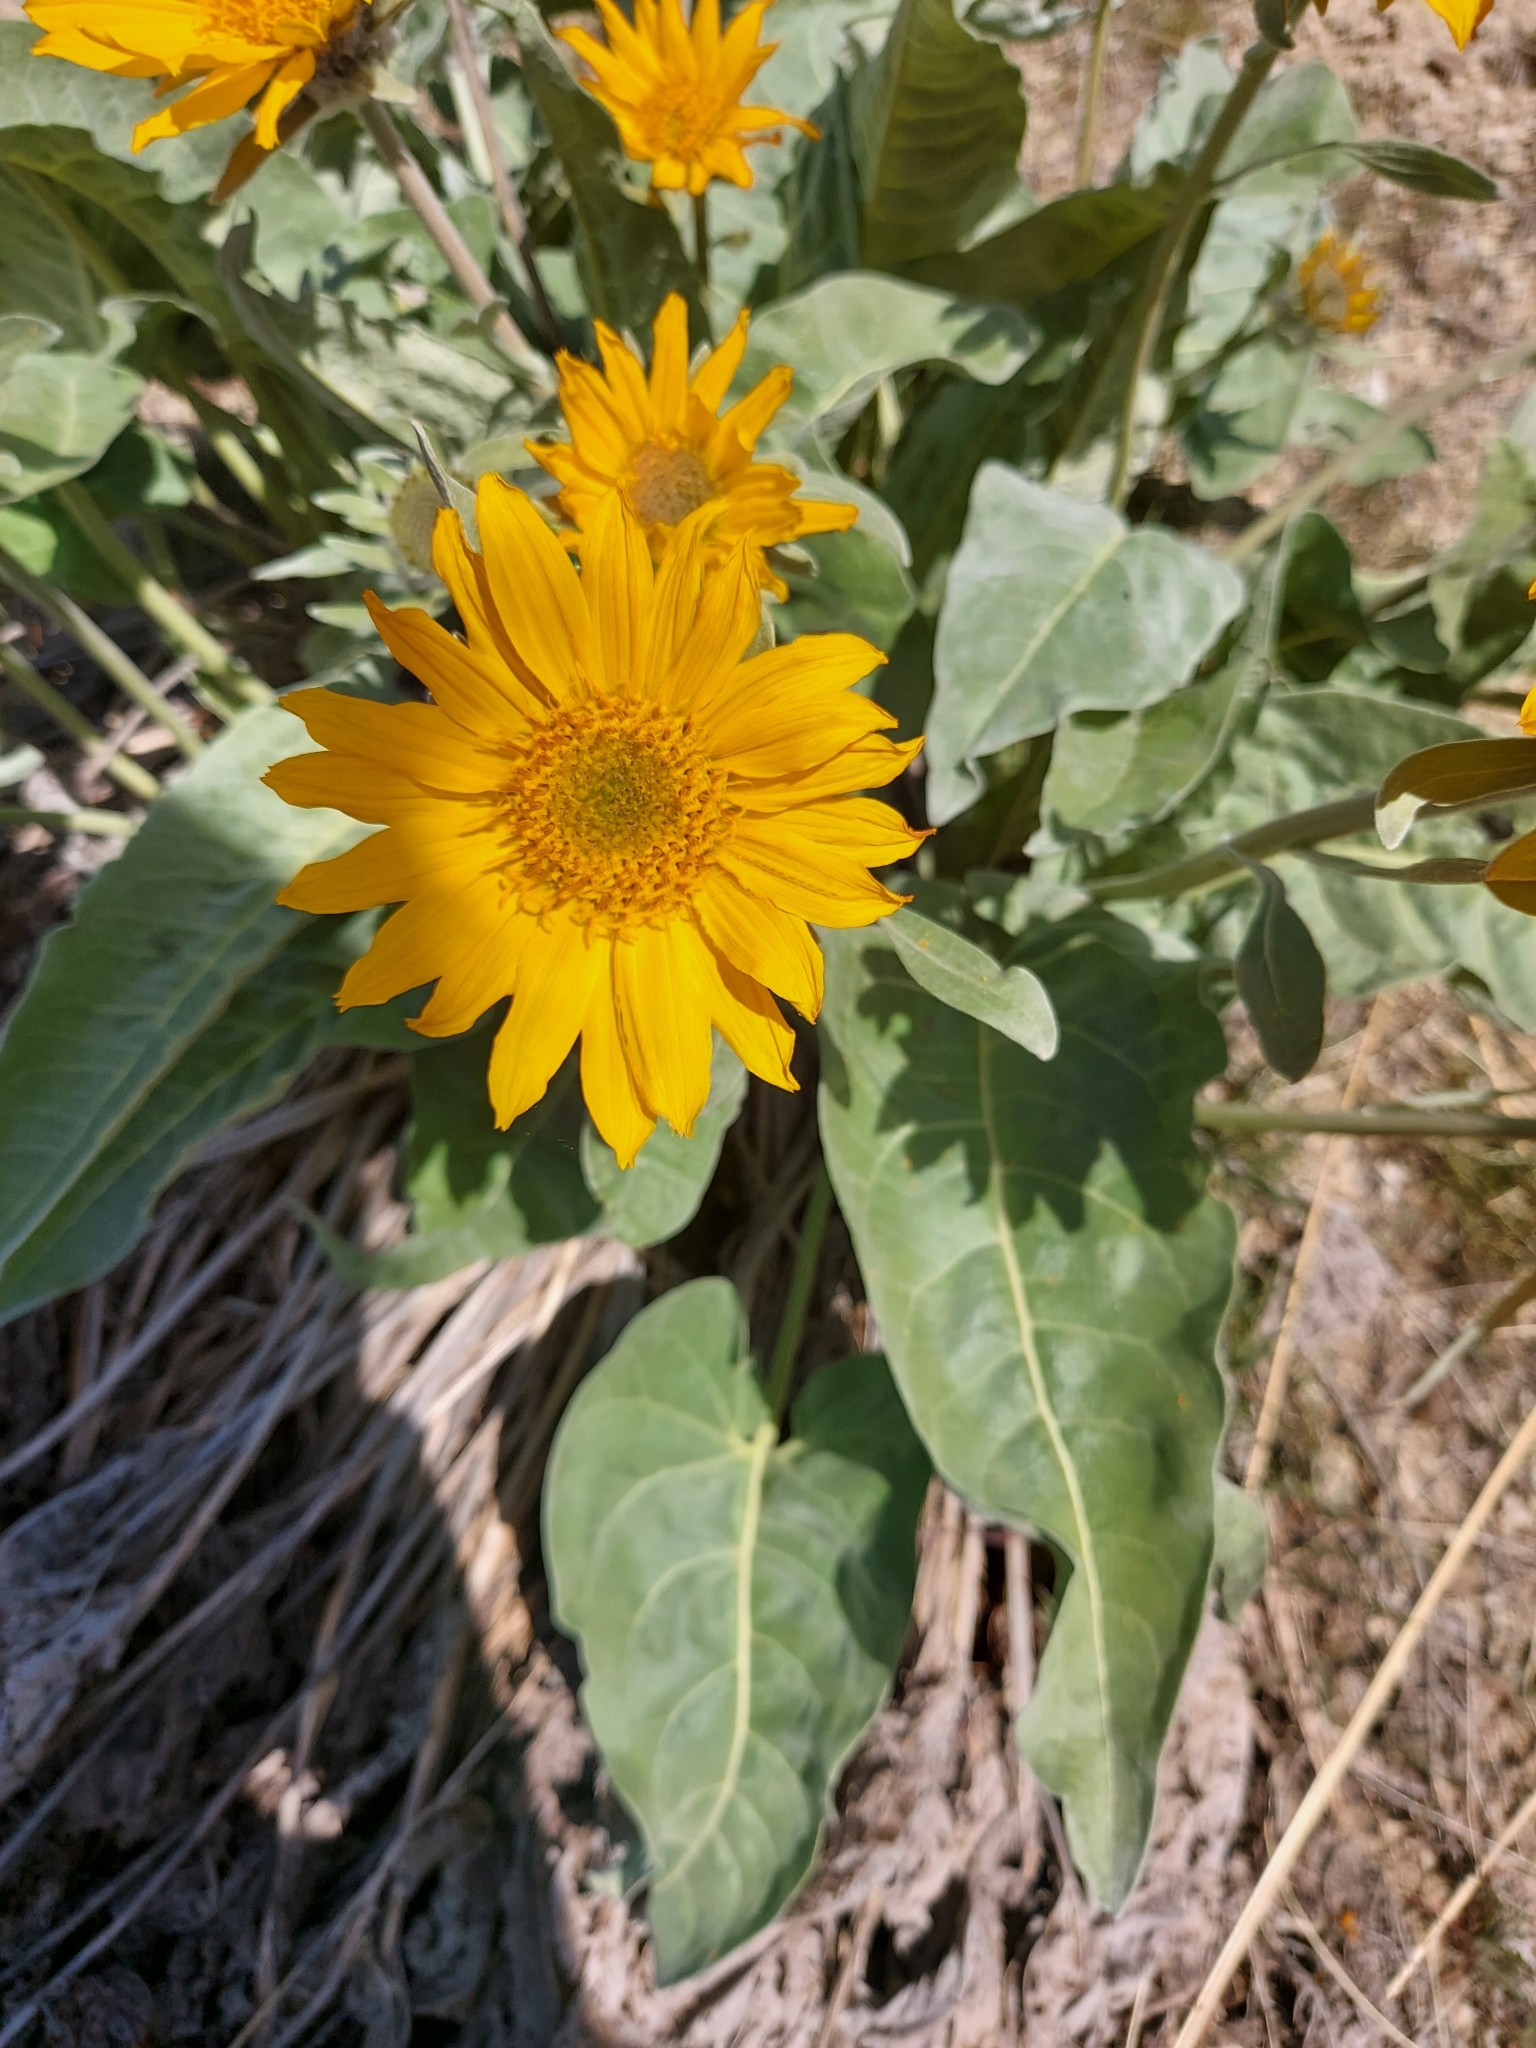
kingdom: Plantae
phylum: Tracheophyta
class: Magnoliopsida
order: Asterales
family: Asteraceae
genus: Wyethia
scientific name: Wyethia sagittata
